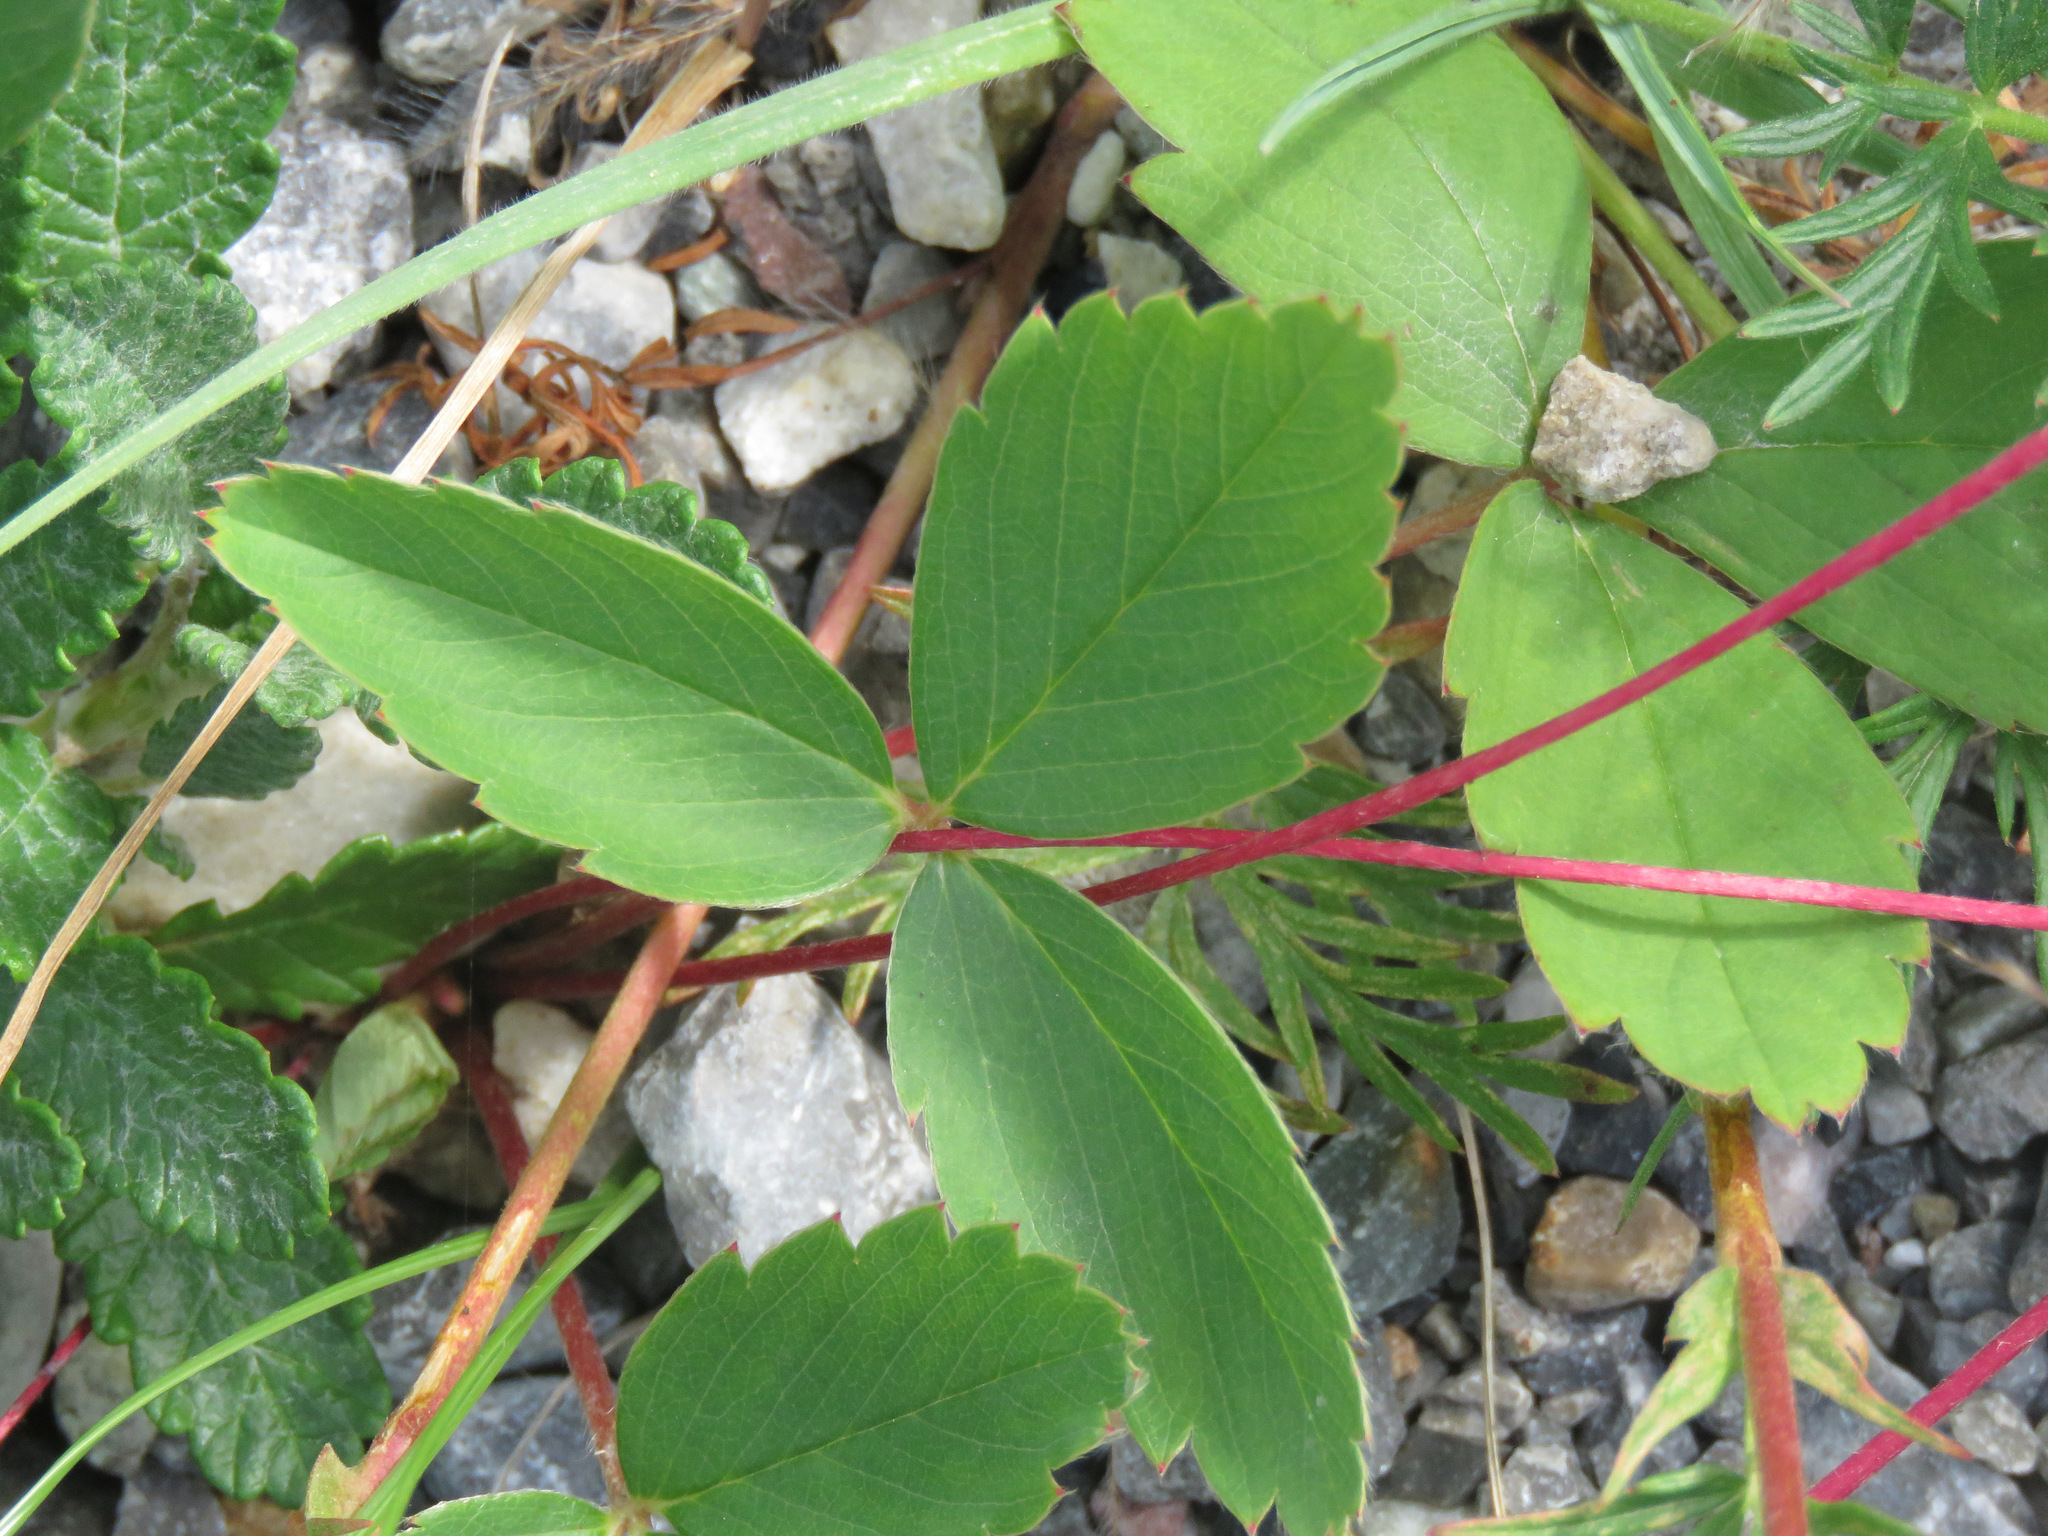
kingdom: Plantae
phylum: Tracheophyta
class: Magnoliopsida
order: Rosales
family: Rosaceae
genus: Fragaria
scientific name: Fragaria virginiana
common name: Thickleaved wild strawberry
